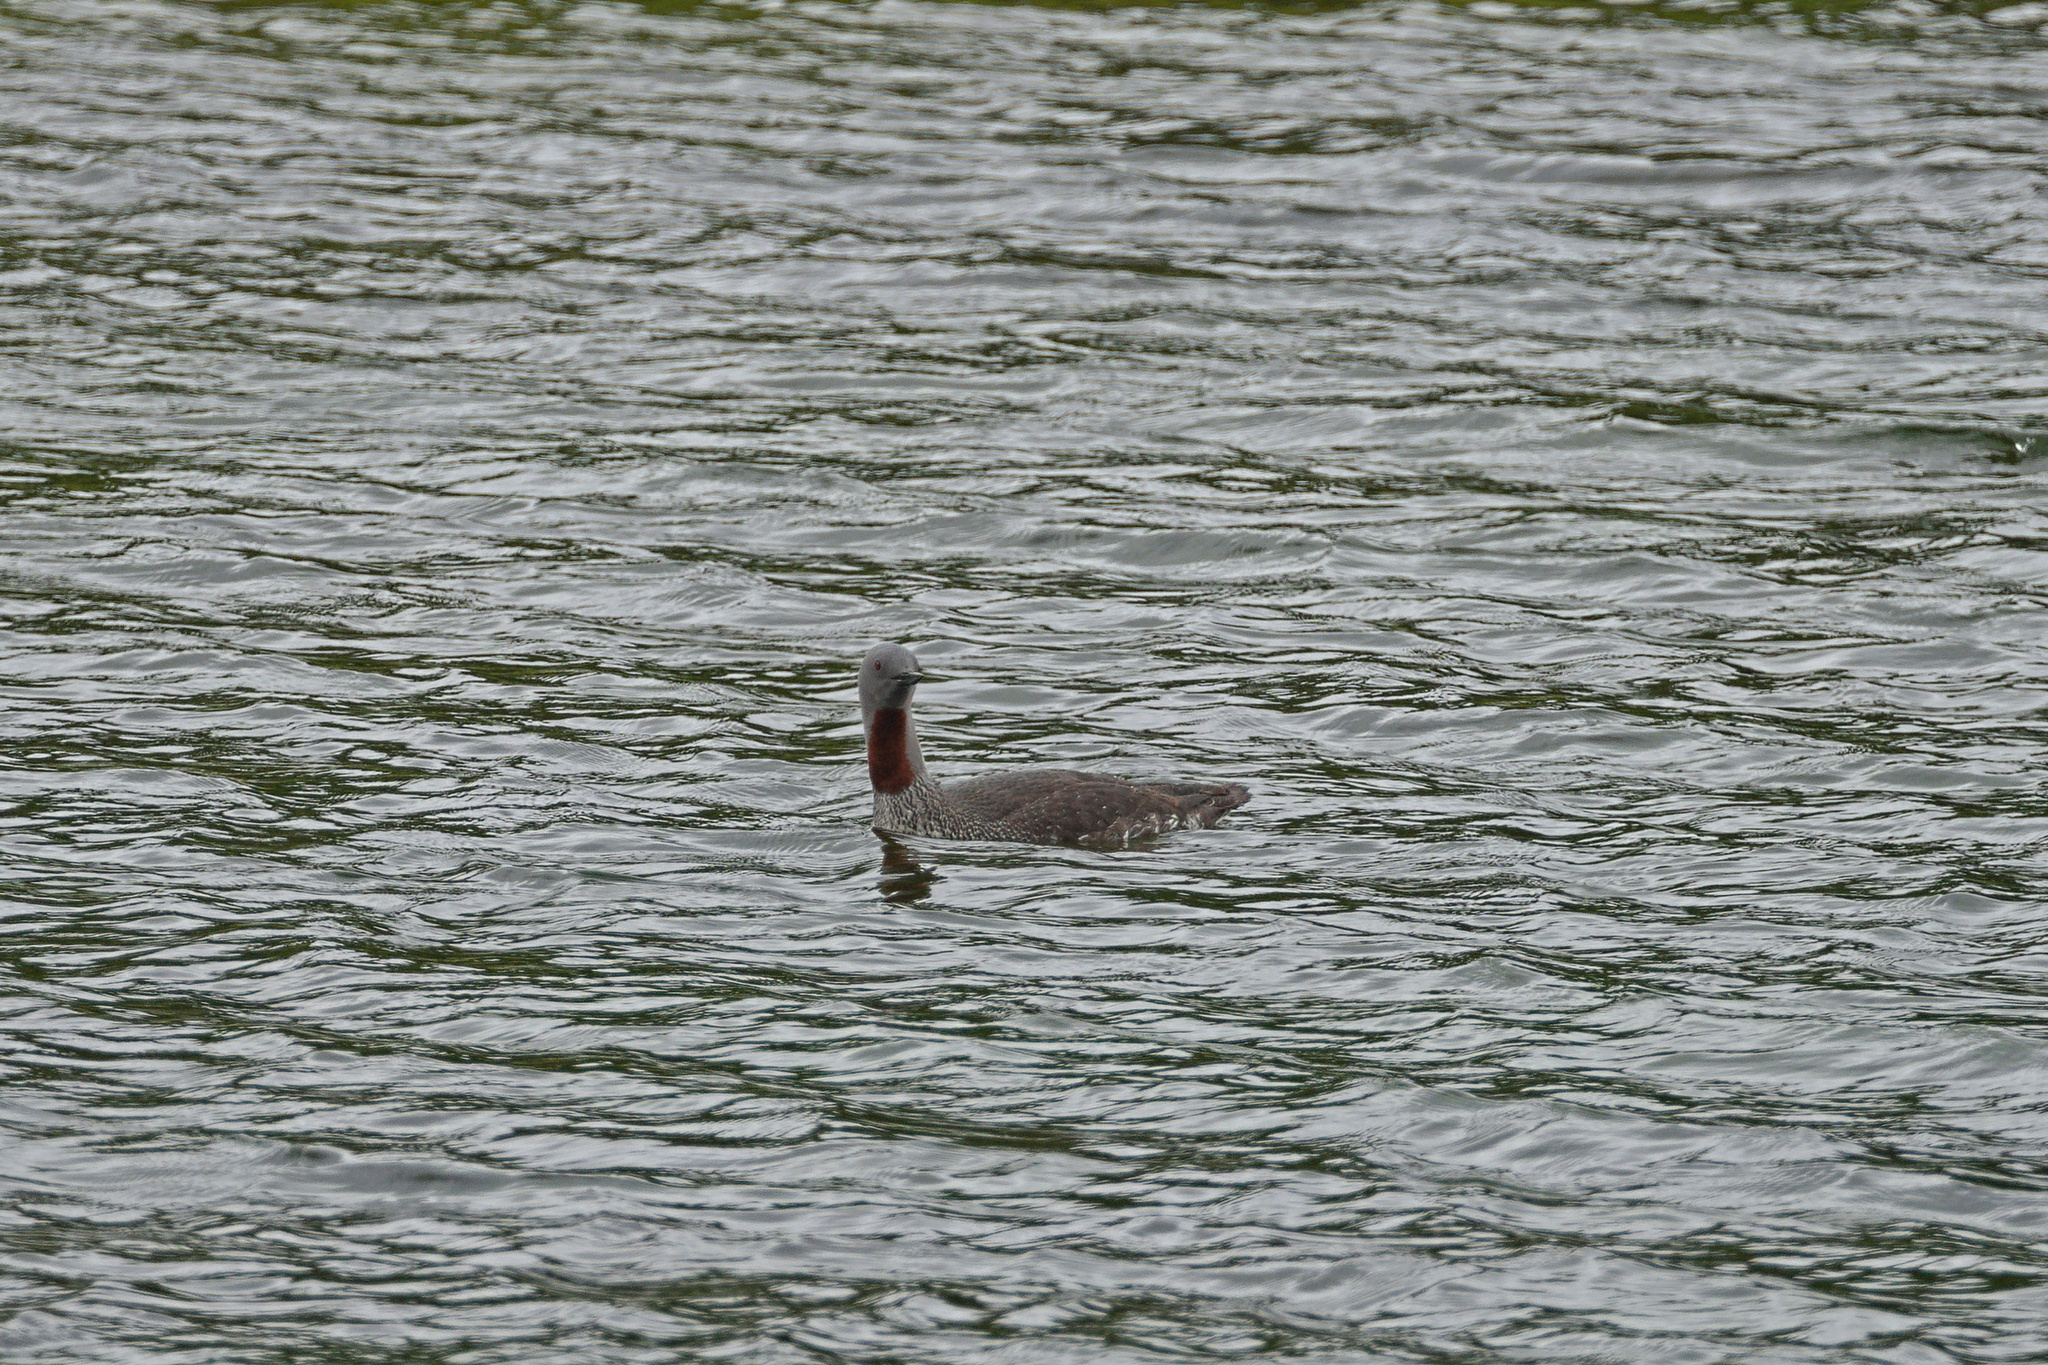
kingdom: Animalia
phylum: Chordata
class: Aves
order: Gaviiformes
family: Gaviidae
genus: Gavia
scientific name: Gavia stellata
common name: Red-throated loon
